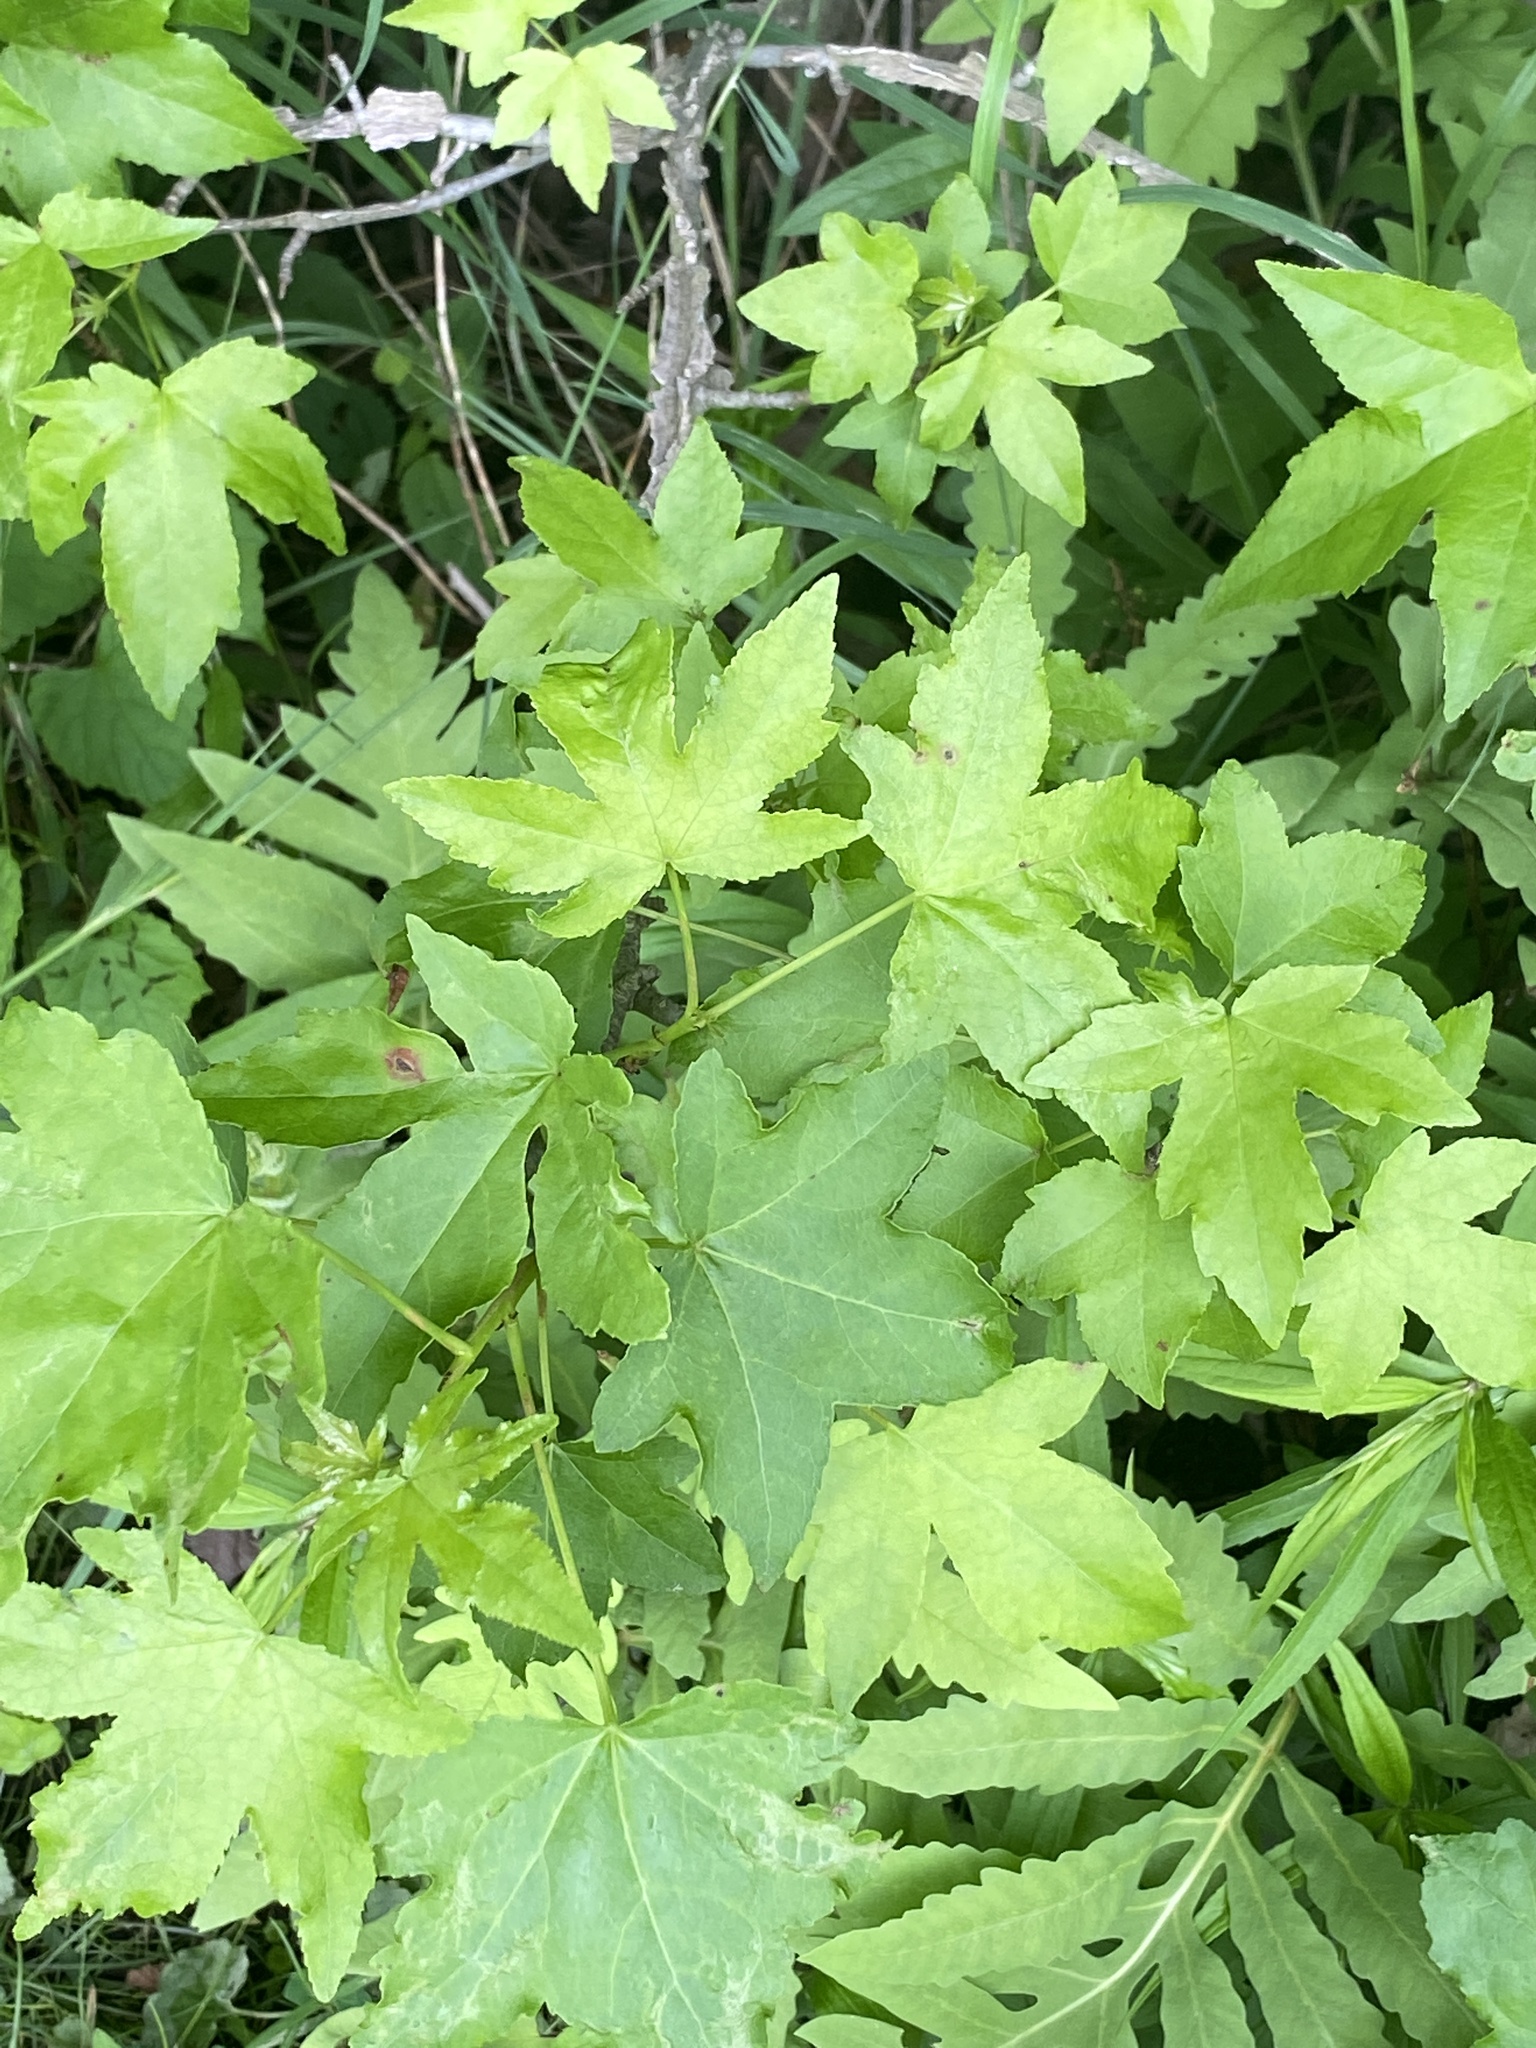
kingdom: Plantae
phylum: Tracheophyta
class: Magnoliopsida
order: Saxifragales
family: Altingiaceae
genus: Liquidambar
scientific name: Liquidambar styraciflua
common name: Sweet gum
